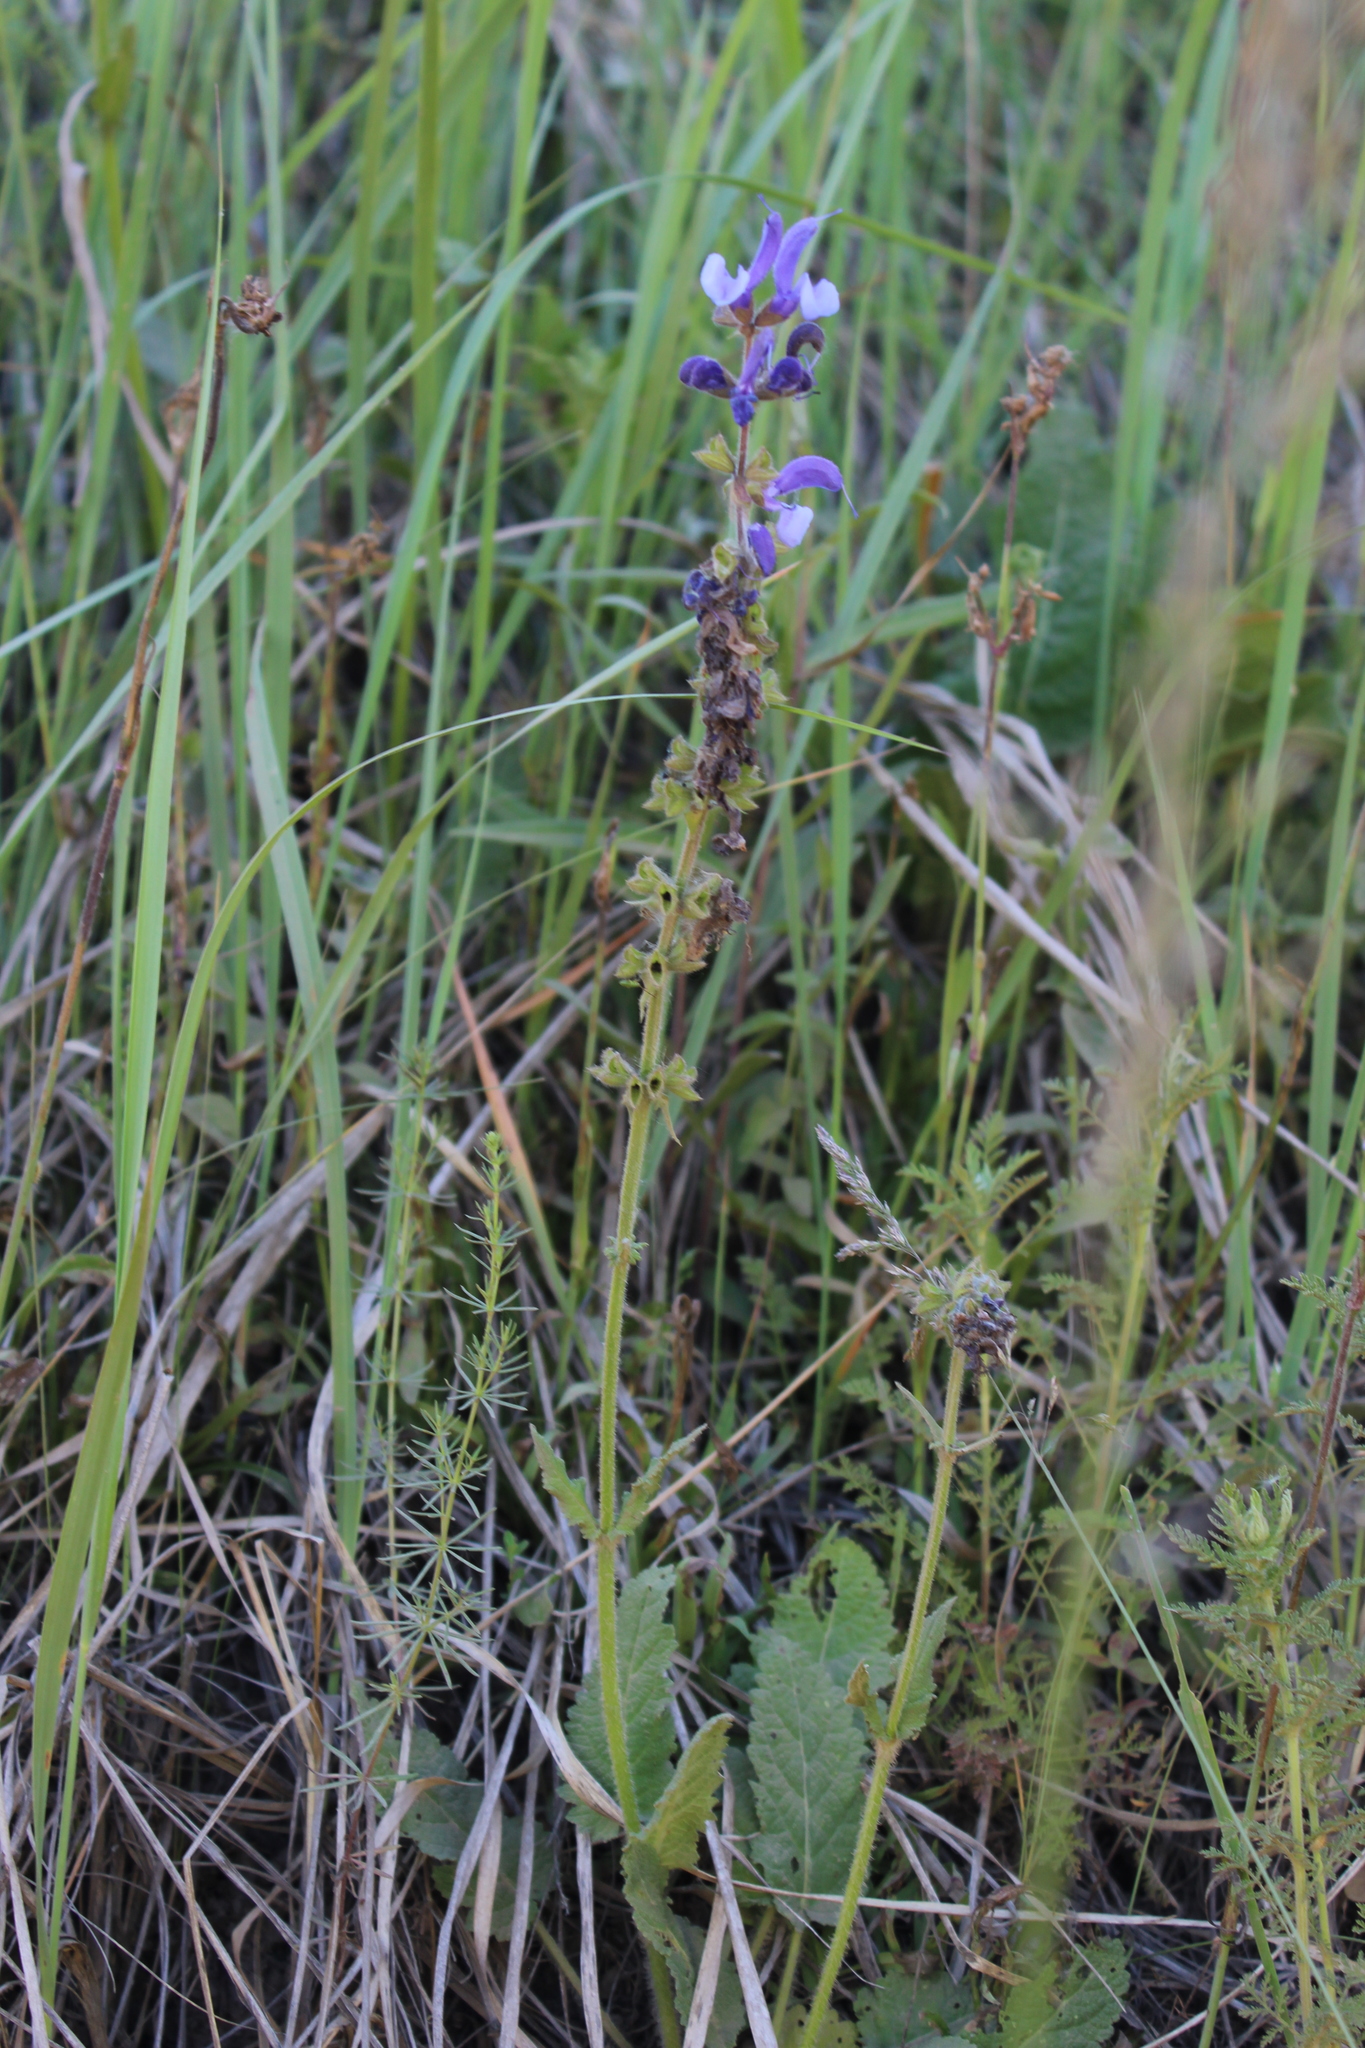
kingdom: Plantae
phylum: Tracheophyta
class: Magnoliopsida
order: Lamiales
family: Lamiaceae
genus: Salvia
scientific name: Salvia pratensis
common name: Meadow sage
